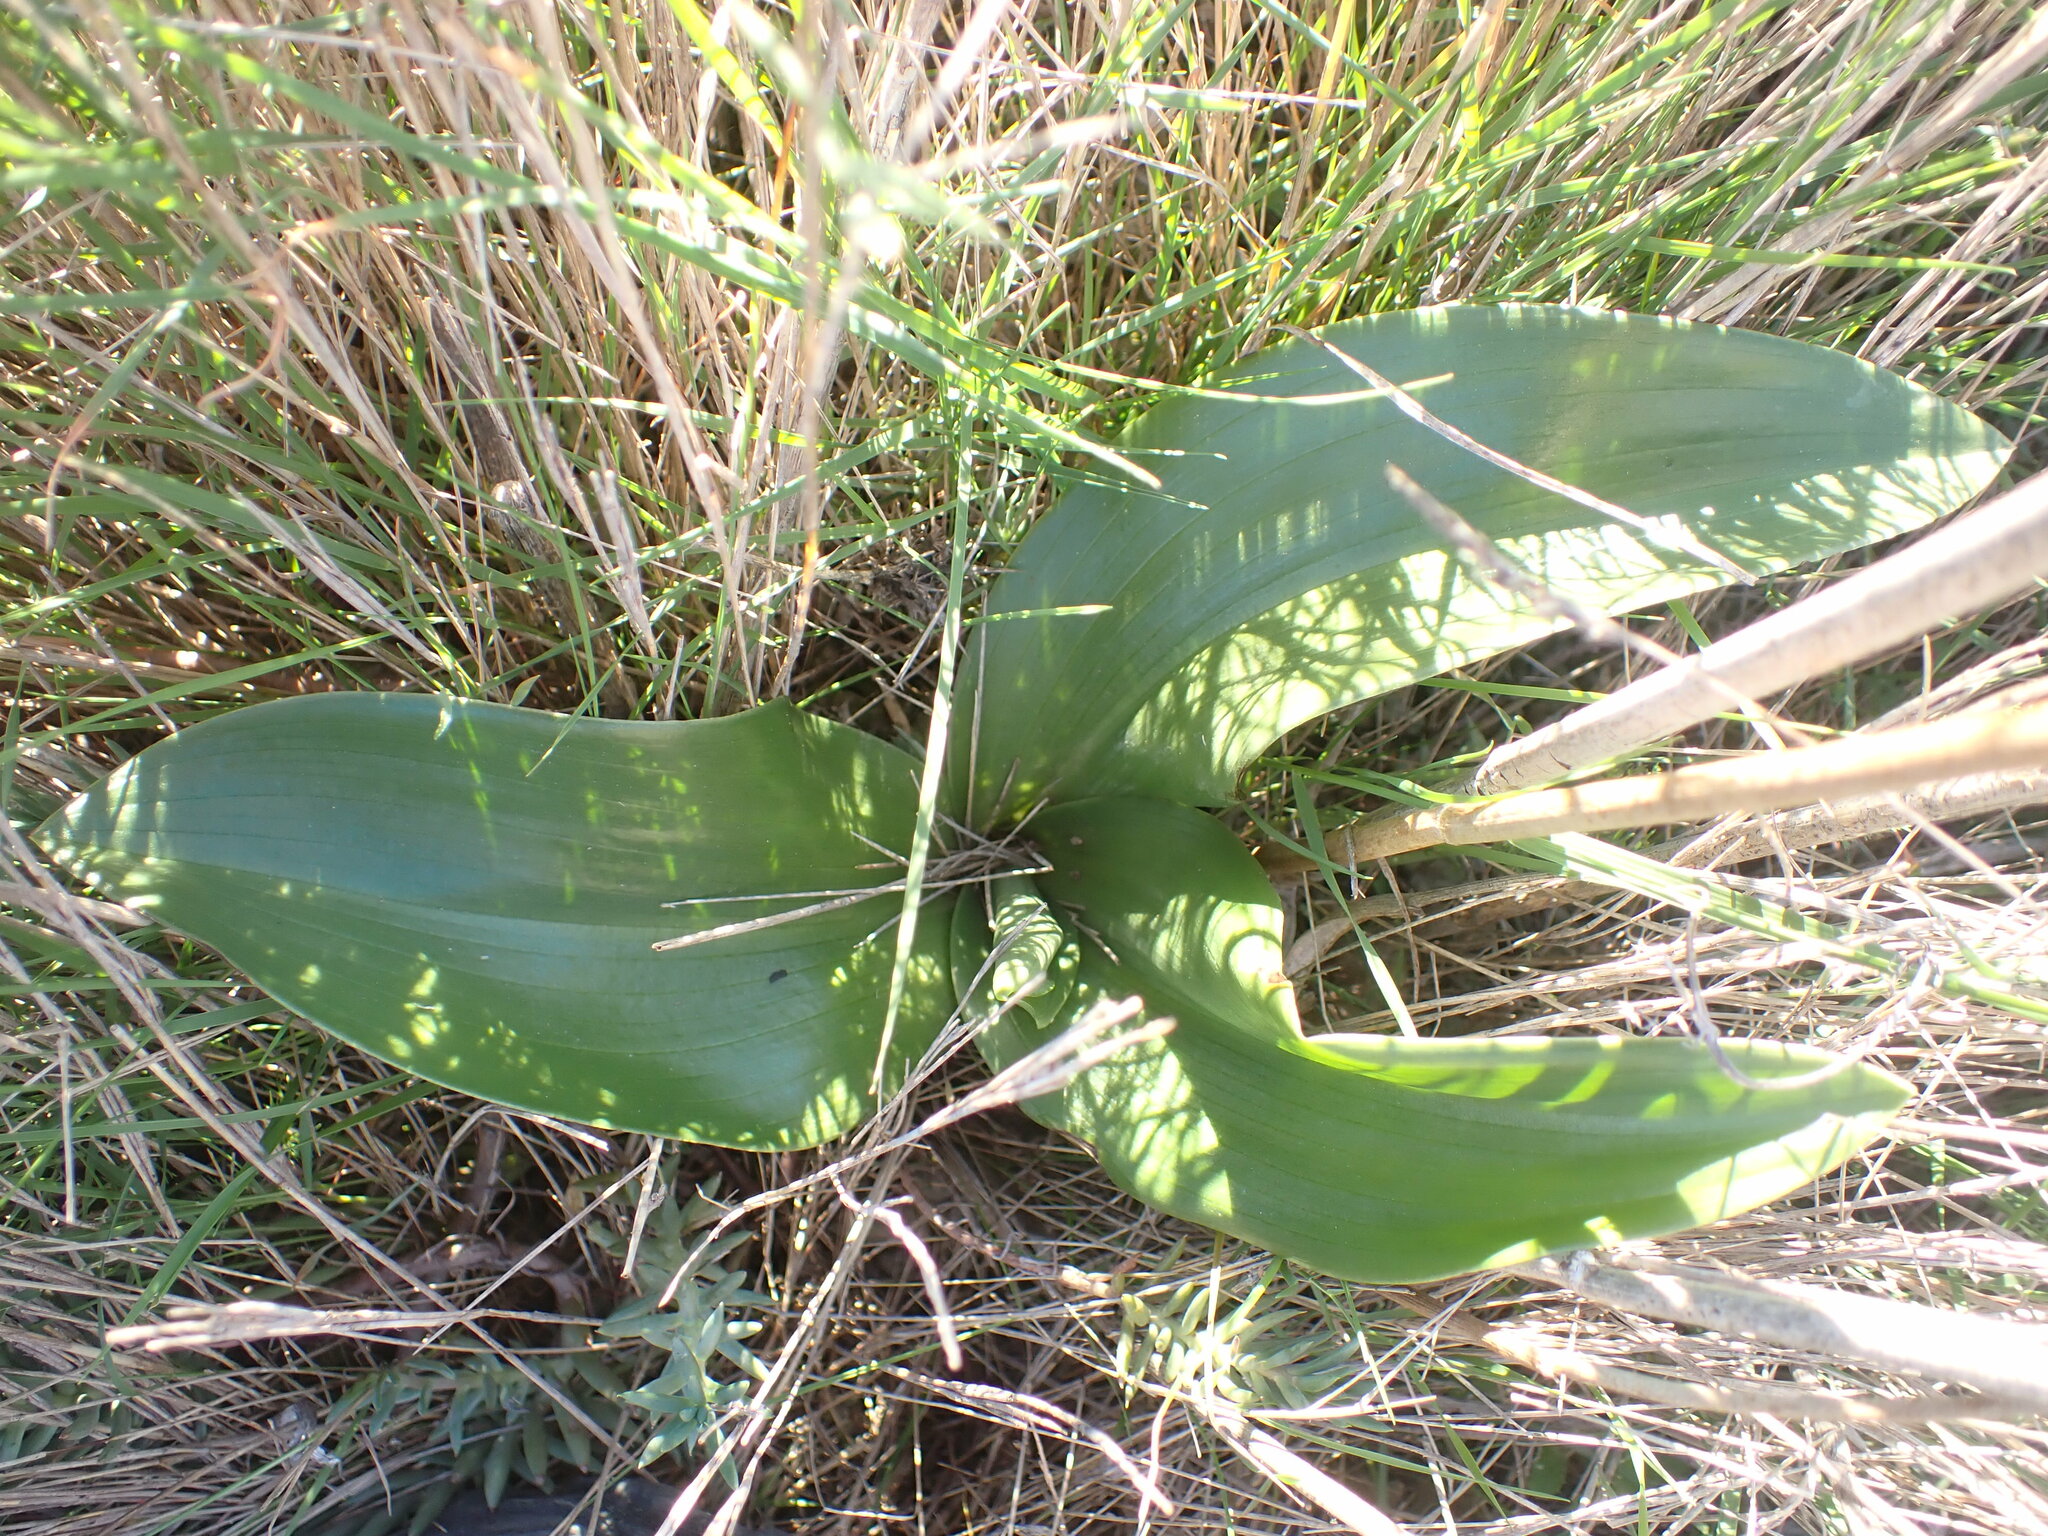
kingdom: Plantae
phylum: Tracheophyta
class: Liliopsida
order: Asparagales
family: Orchidaceae
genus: Himantoglossum
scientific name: Himantoglossum robertianum
